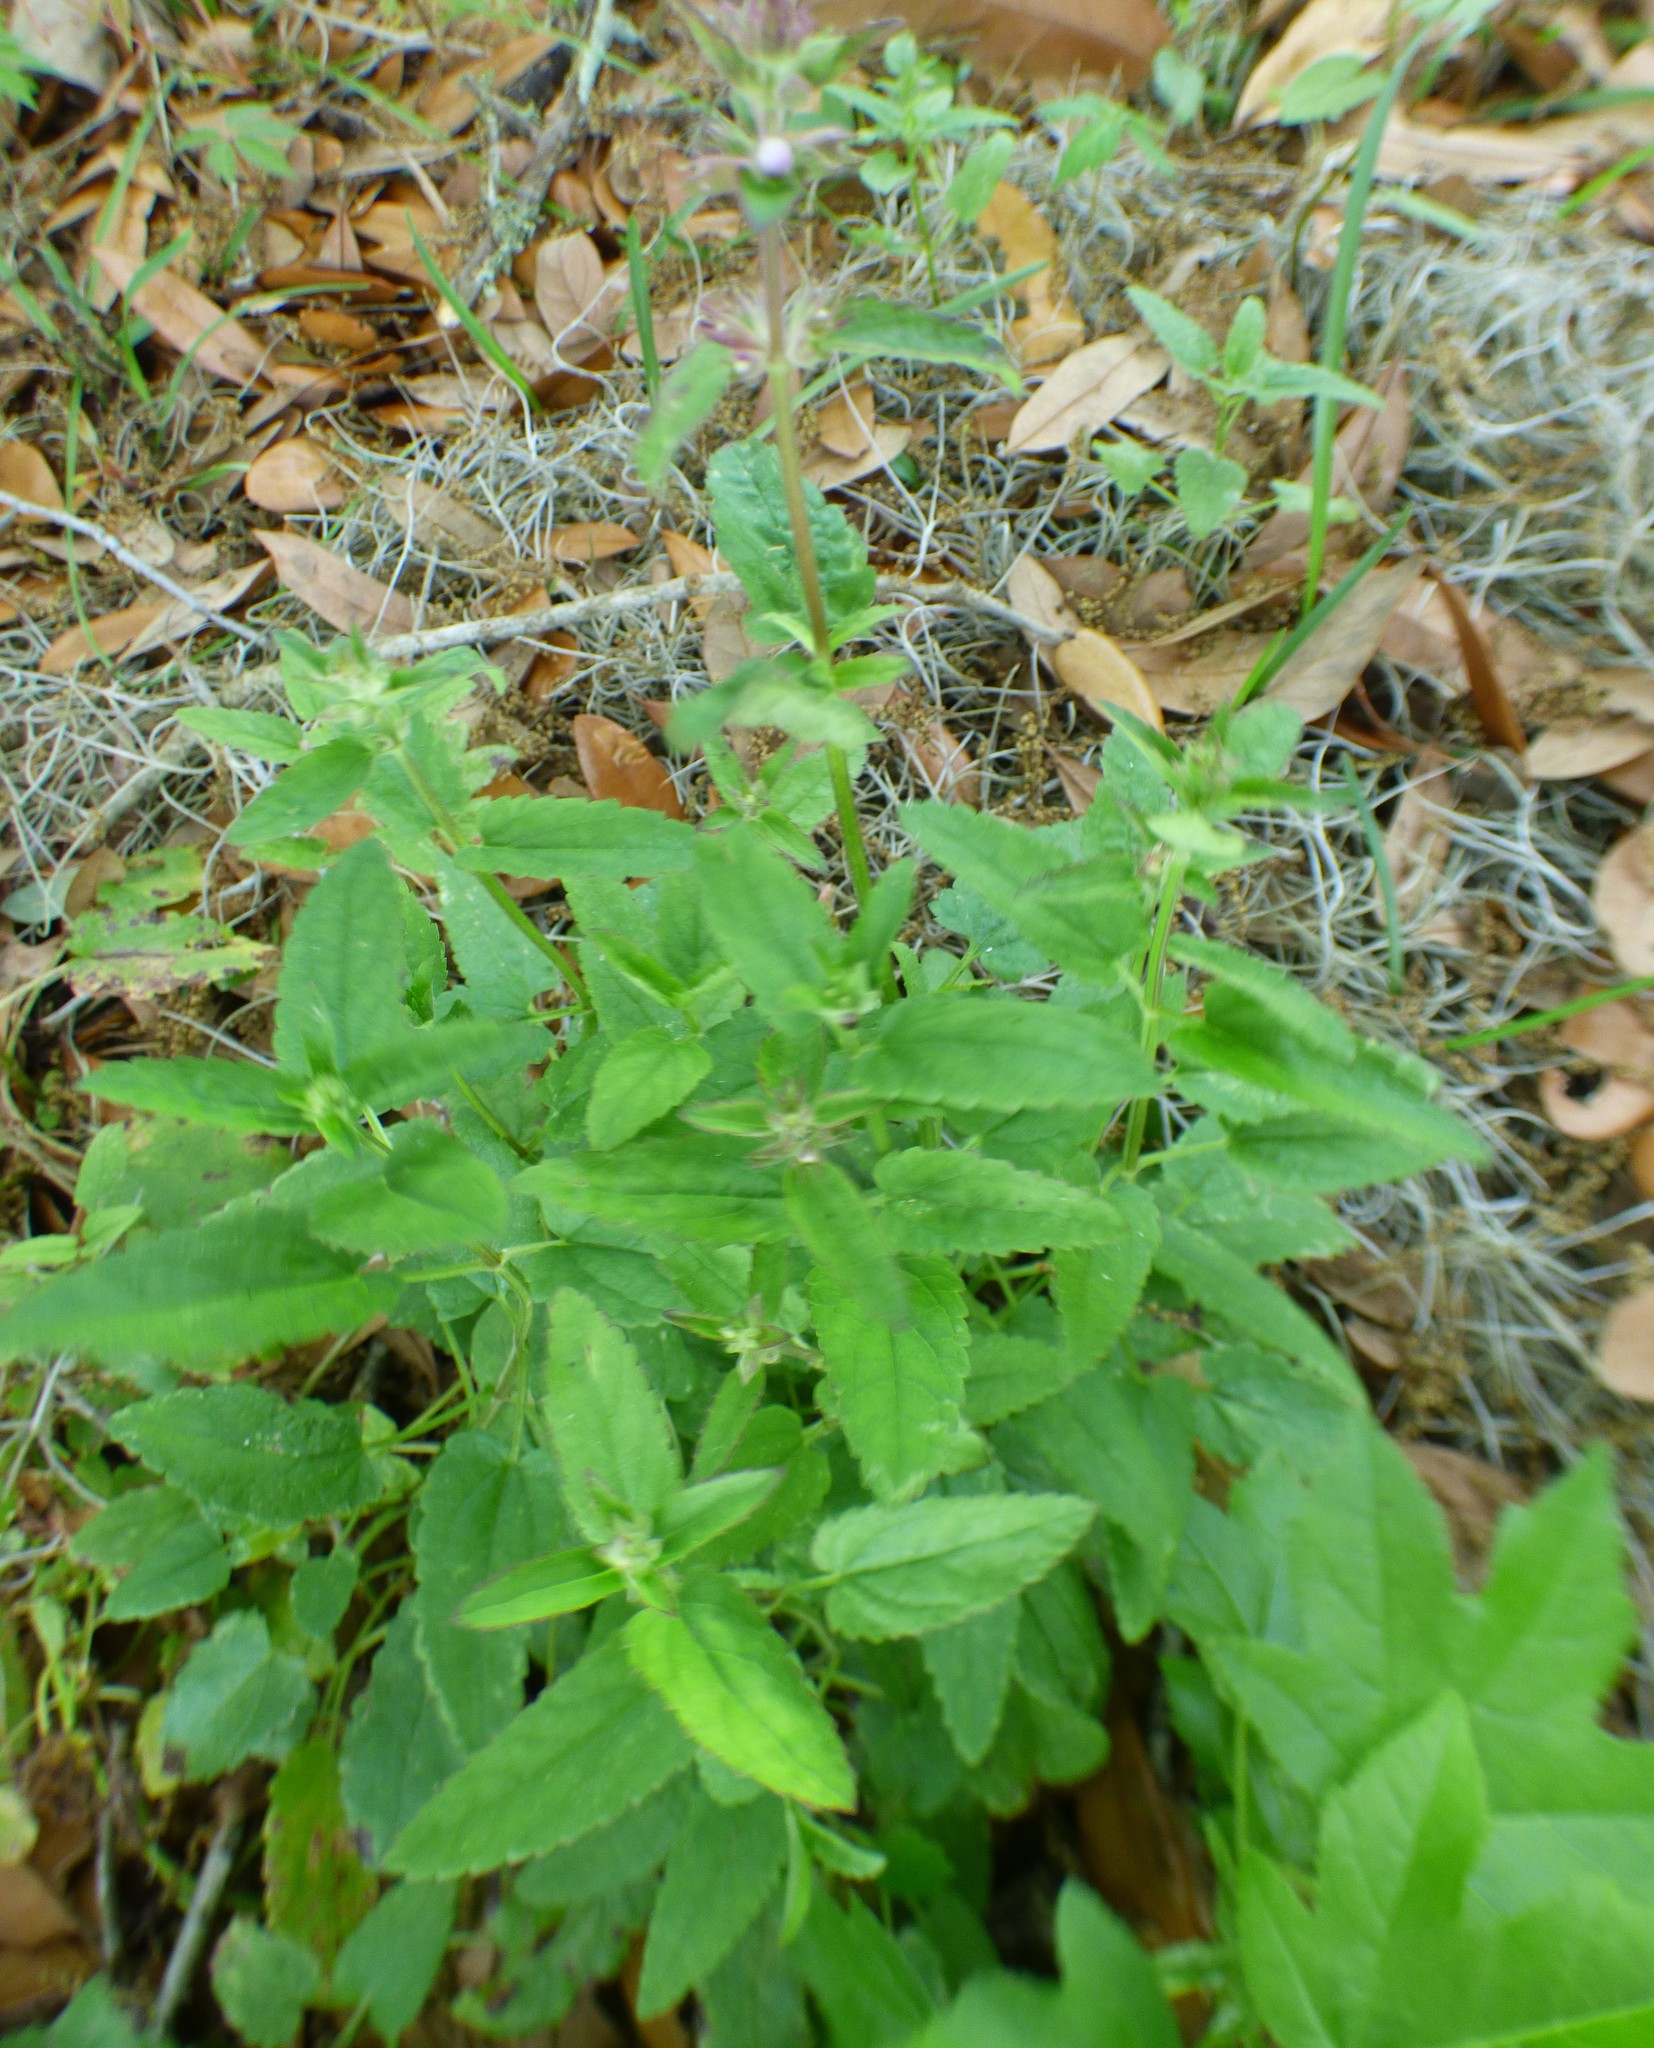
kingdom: Plantae
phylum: Tracheophyta
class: Magnoliopsida
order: Lamiales
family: Lamiaceae
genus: Stachys
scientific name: Stachys floridana
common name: Florida betony
